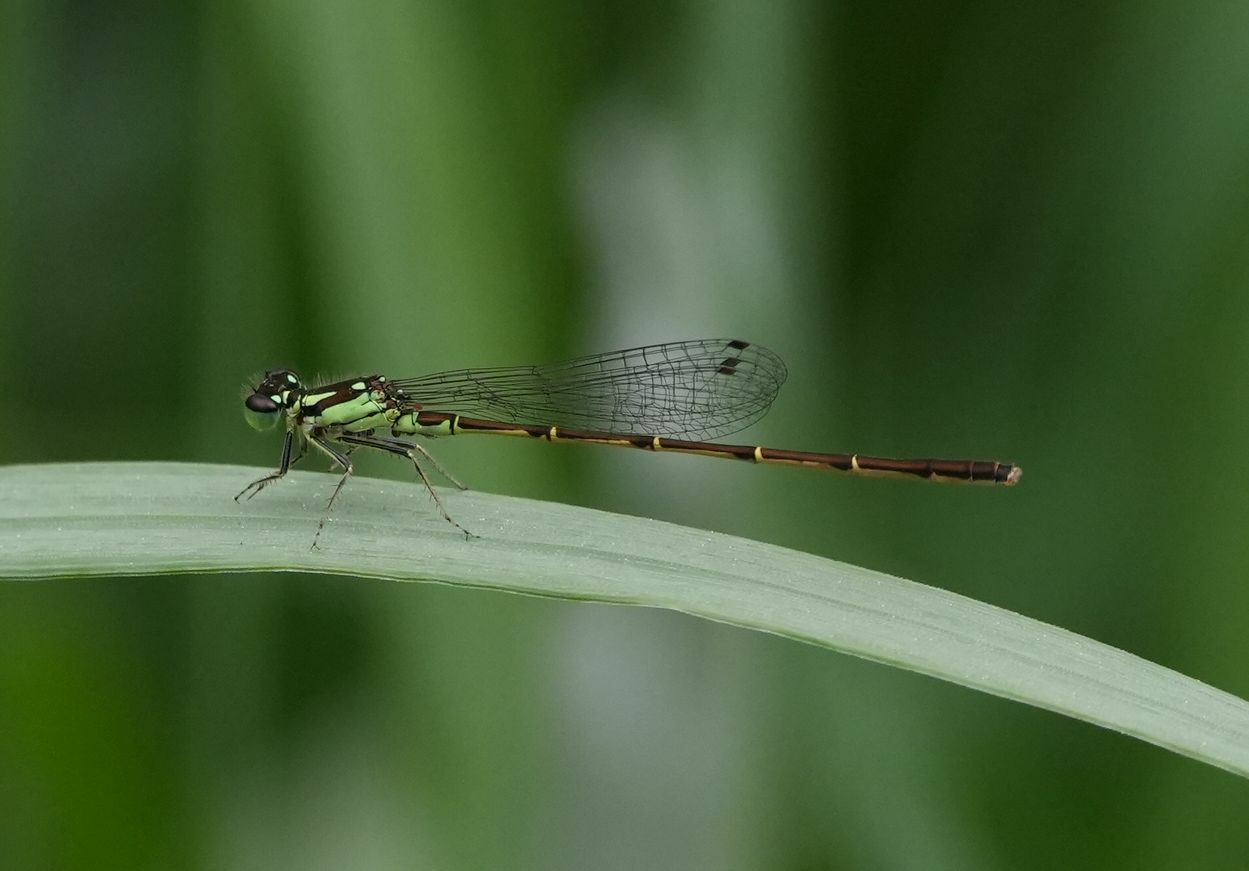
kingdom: Animalia
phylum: Arthropoda
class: Insecta
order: Odonata
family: Coenagrionidae
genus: Ischnura
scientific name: Ischnura posita
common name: Fragile forktail
